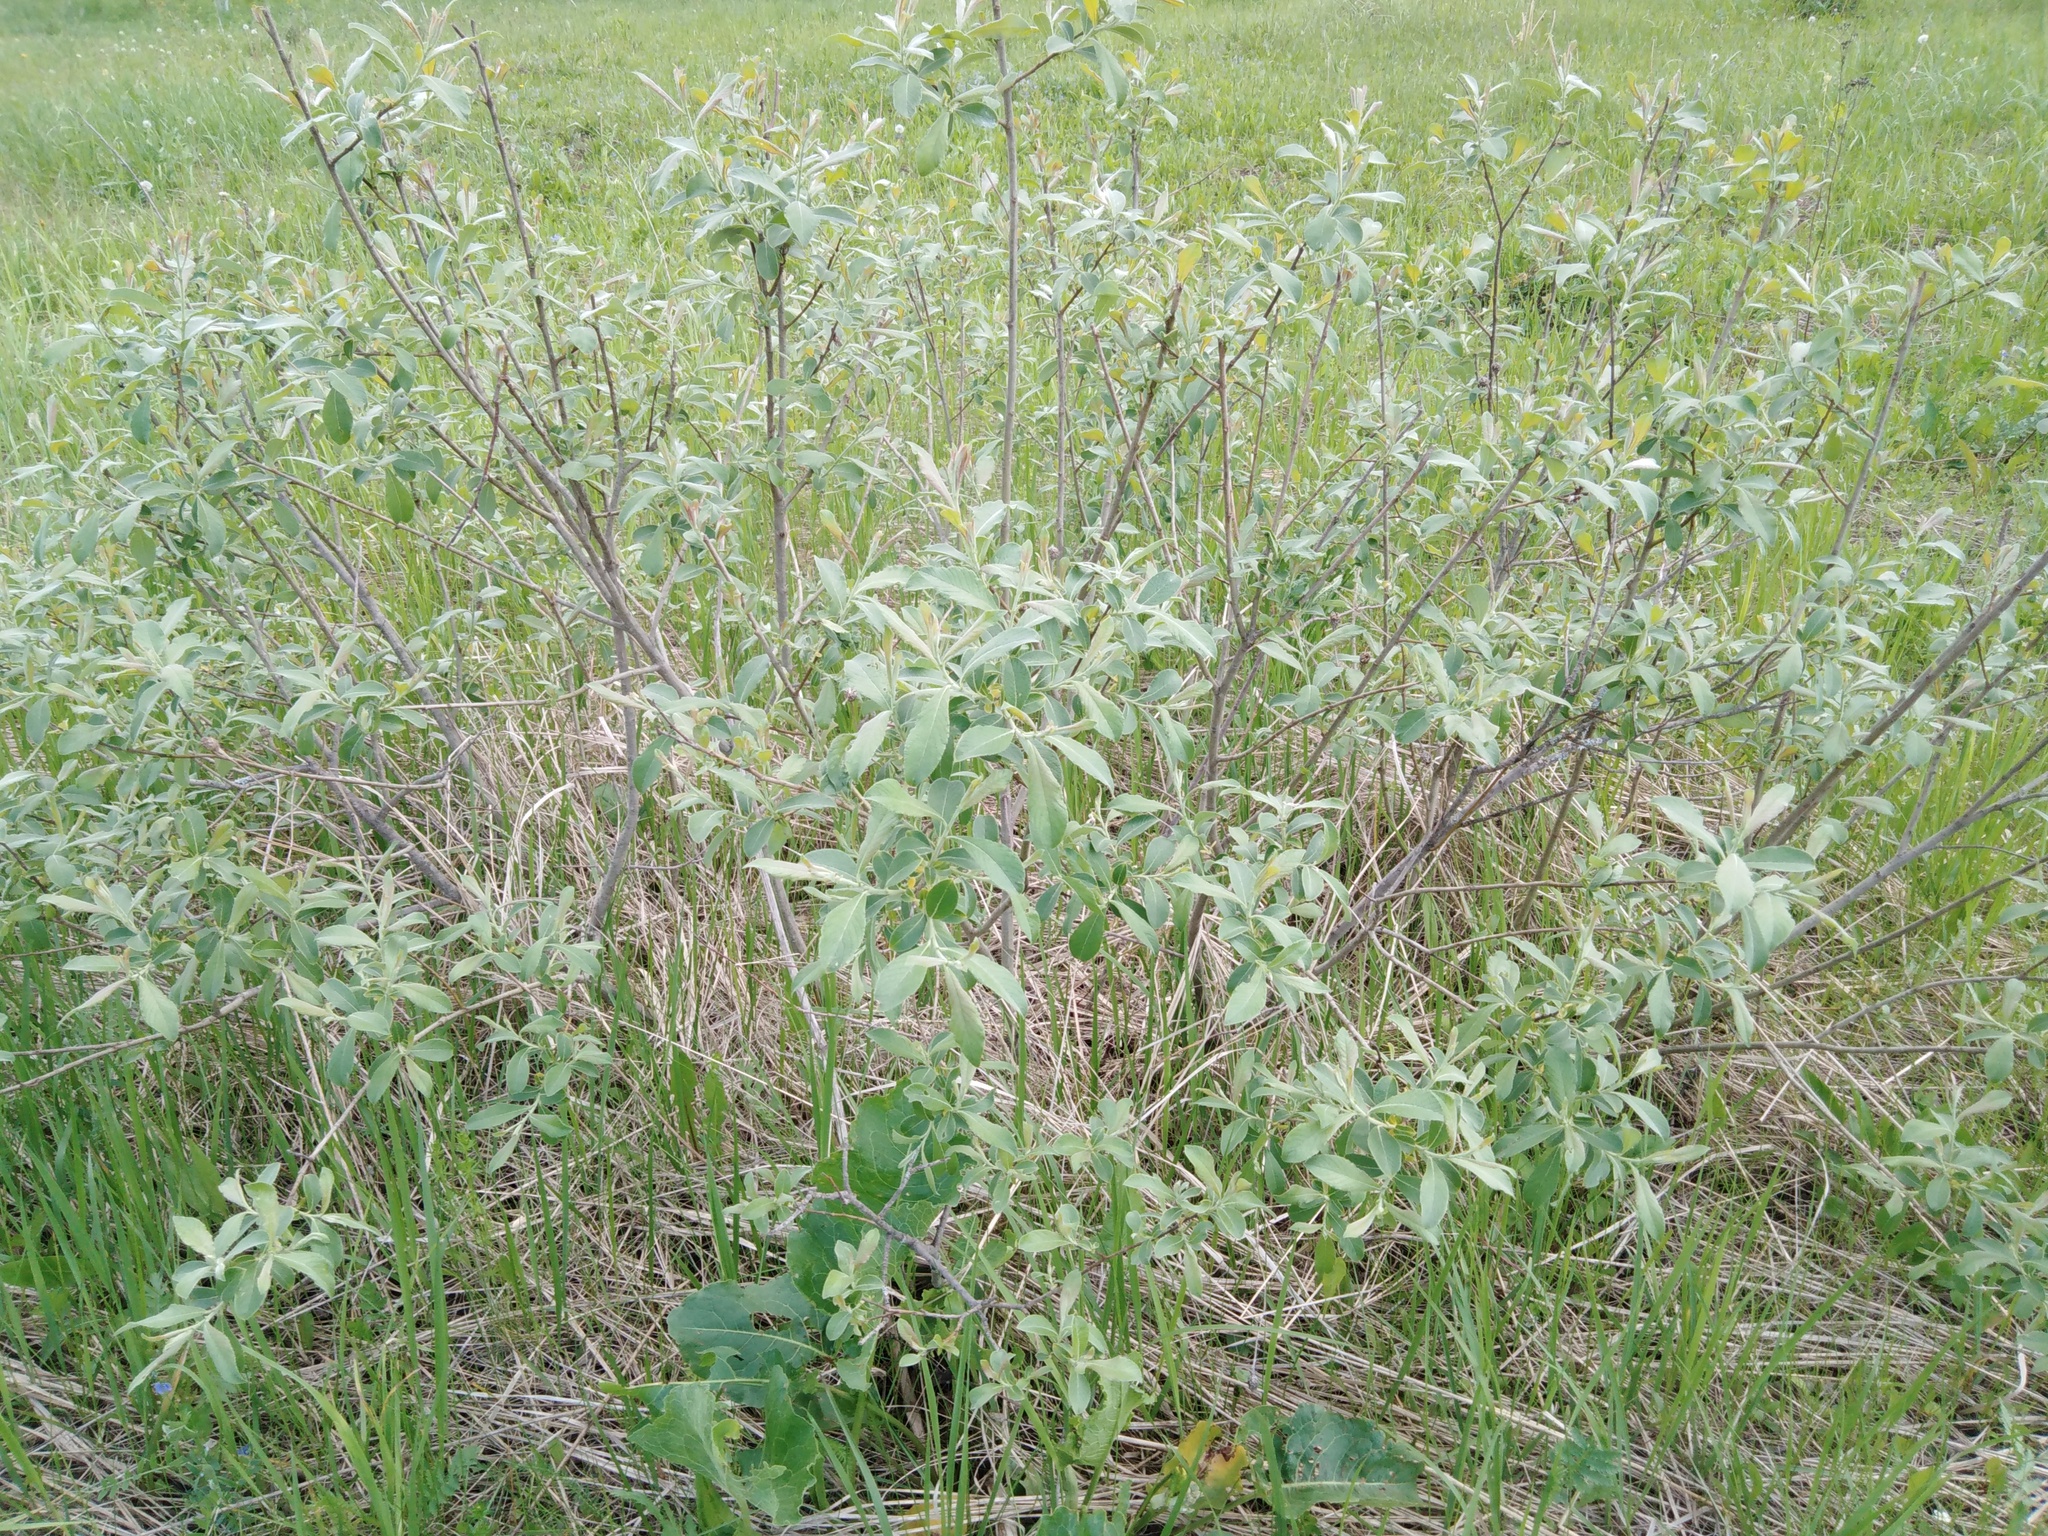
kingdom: Plantae
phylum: Tracheophyta
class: Magnoliopsida
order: Malpighiales
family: Salicaceae
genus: Salix
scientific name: Salix cinerea
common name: Common sallow
